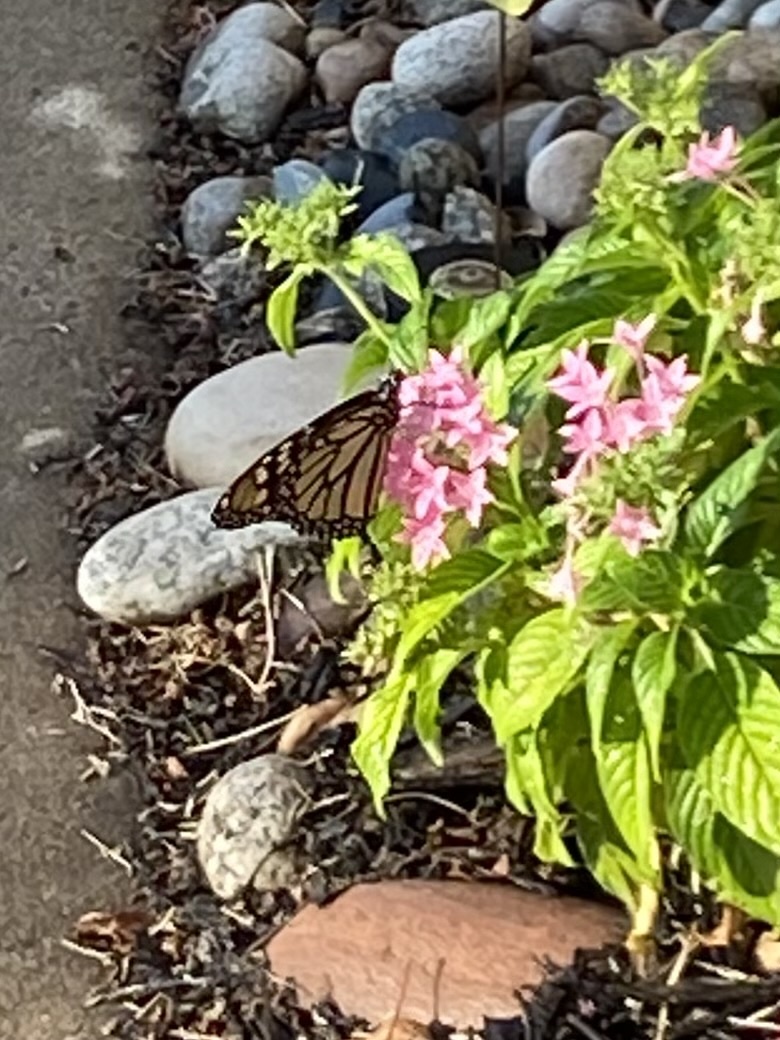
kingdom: Animalia
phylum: Arthropoda
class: Insecta
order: Lepidoptera
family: Nymphalidae
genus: Danaus
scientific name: Danaus plexippus
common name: Monarch
